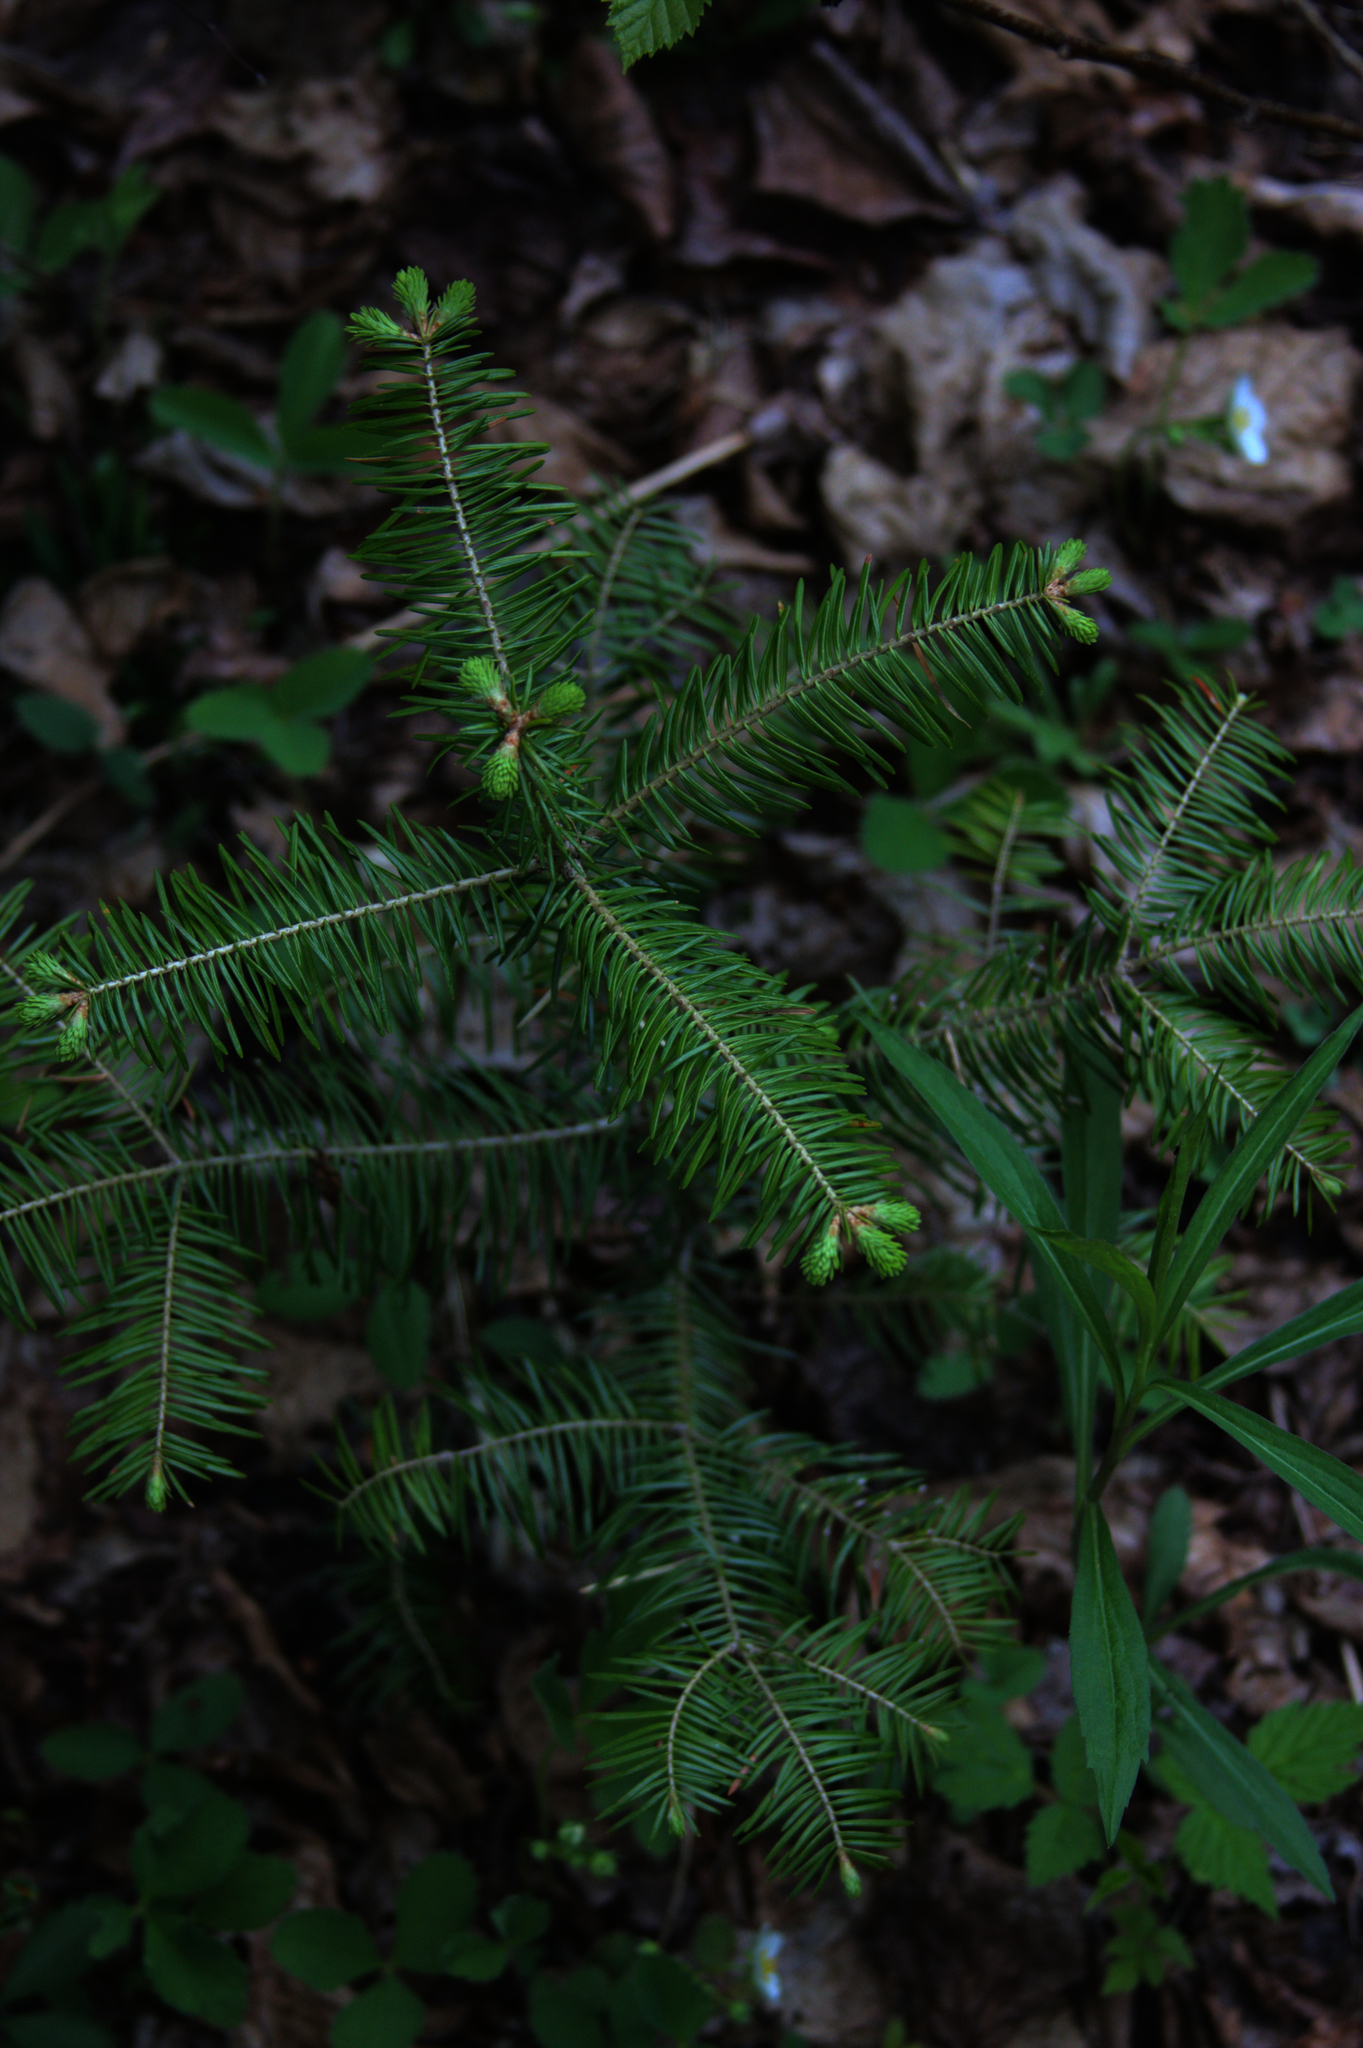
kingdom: Plantae
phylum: Tracheophyta
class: Pinopsida
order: Pinales
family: Pinaceae
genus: Abies
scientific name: Abies balsamea
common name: Balsam fir
